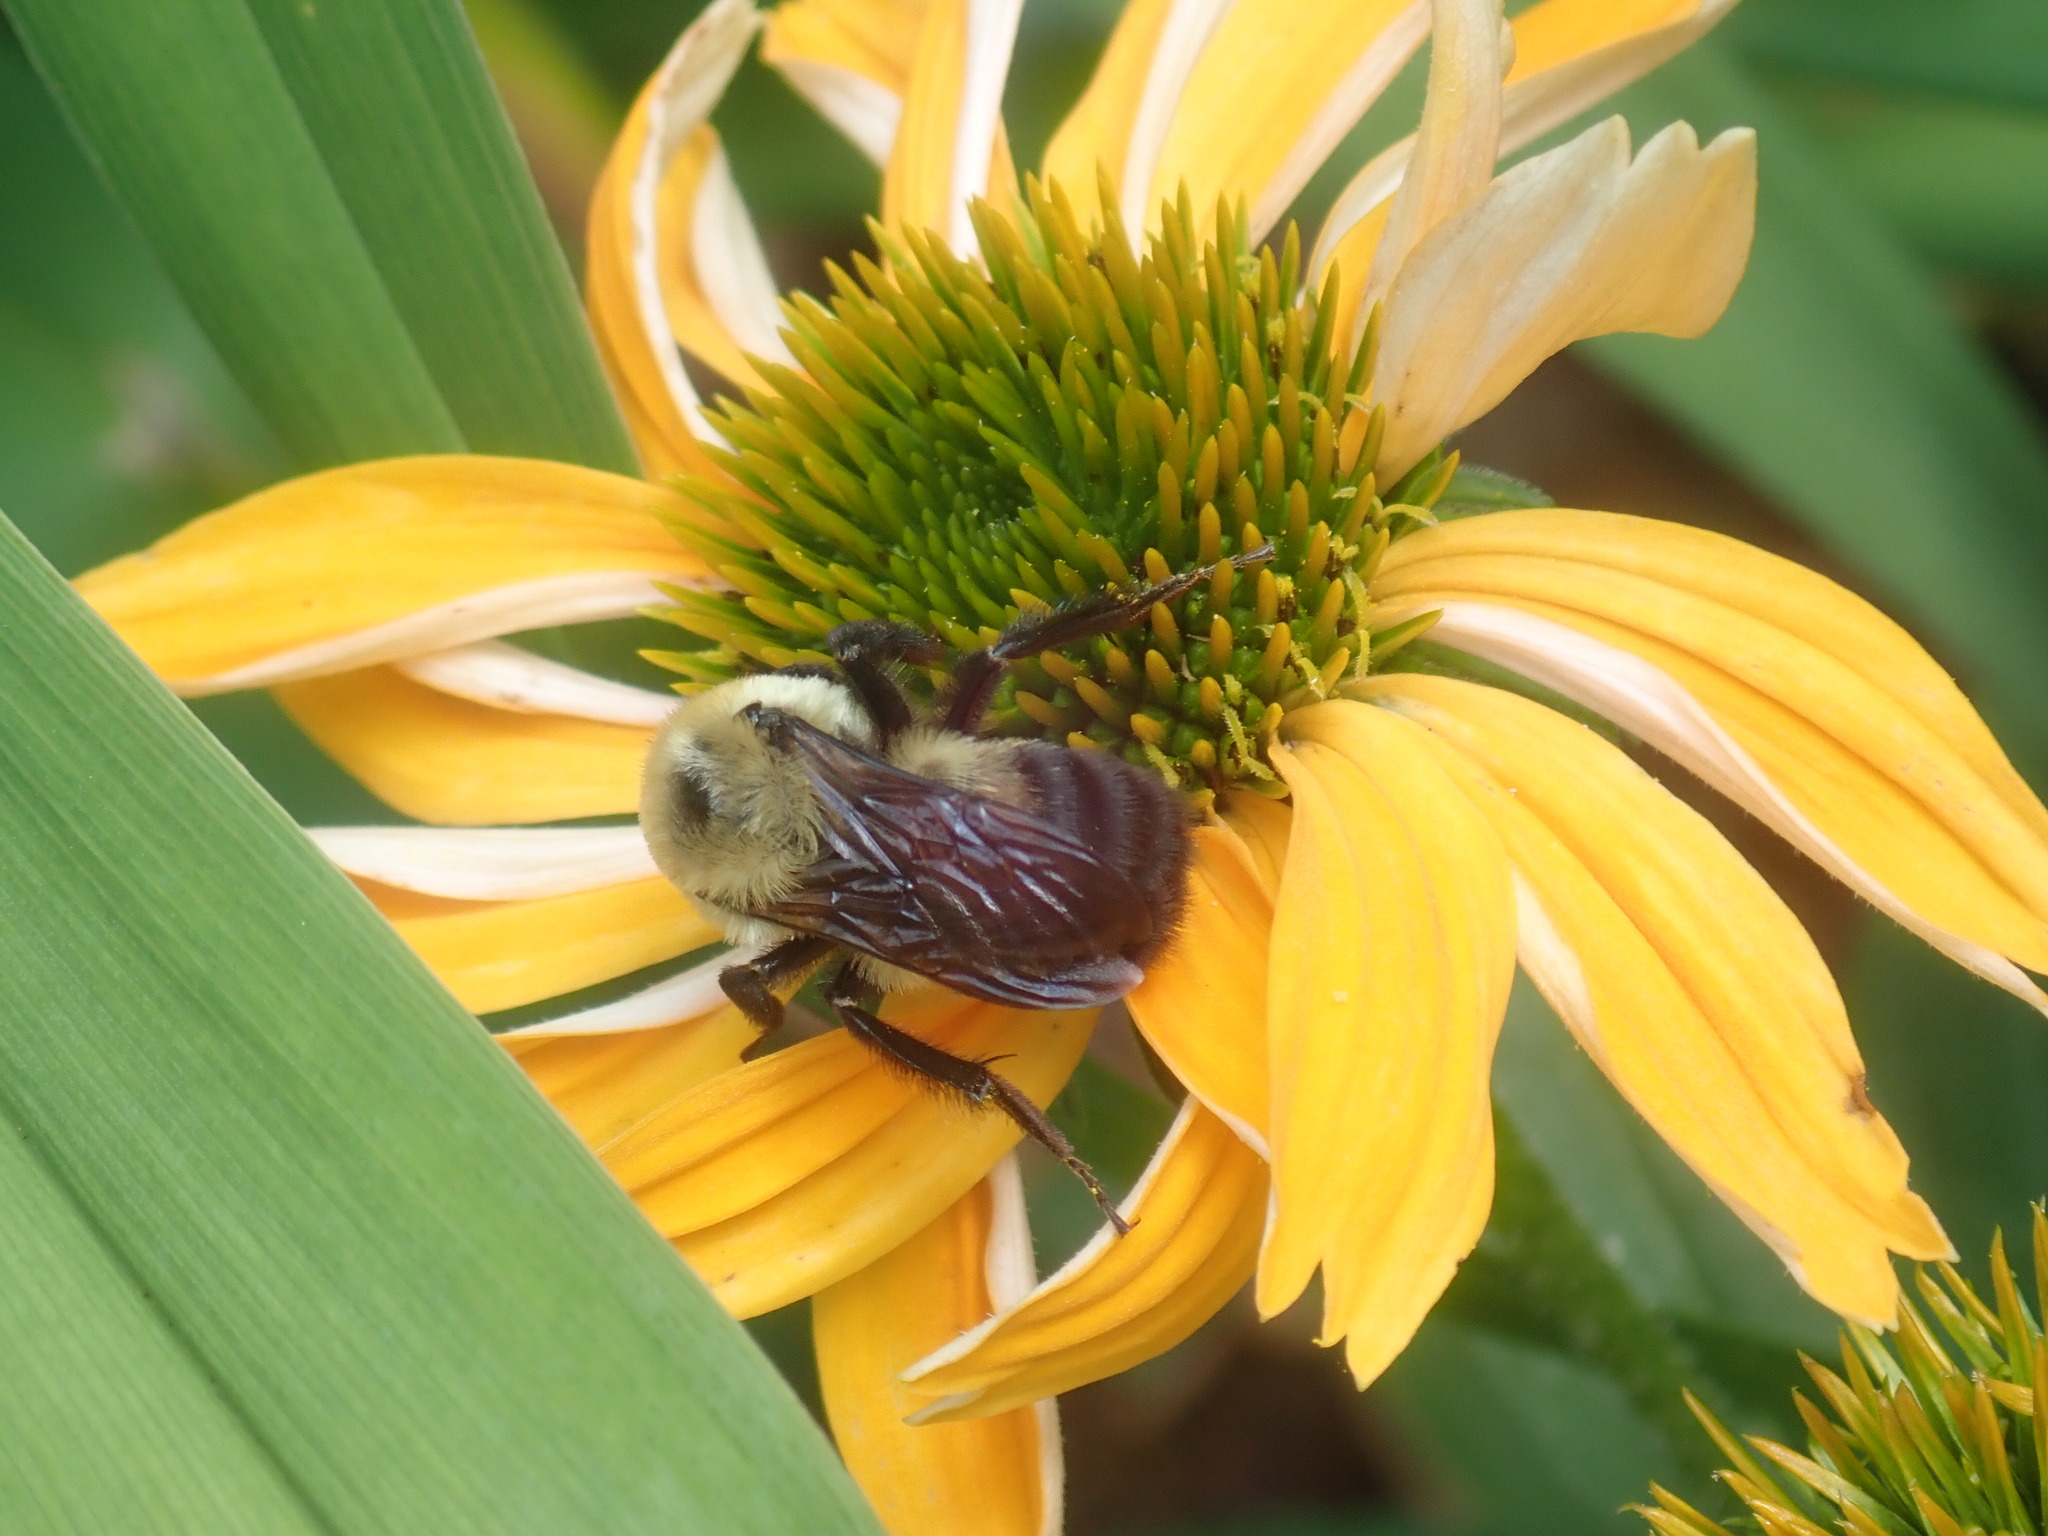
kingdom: Animalia
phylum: Arthropoda
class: Insecta
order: Hymenoptera
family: Apidae
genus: Bombus
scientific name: Bombus griseocollis
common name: Brown-belted bumble bee
